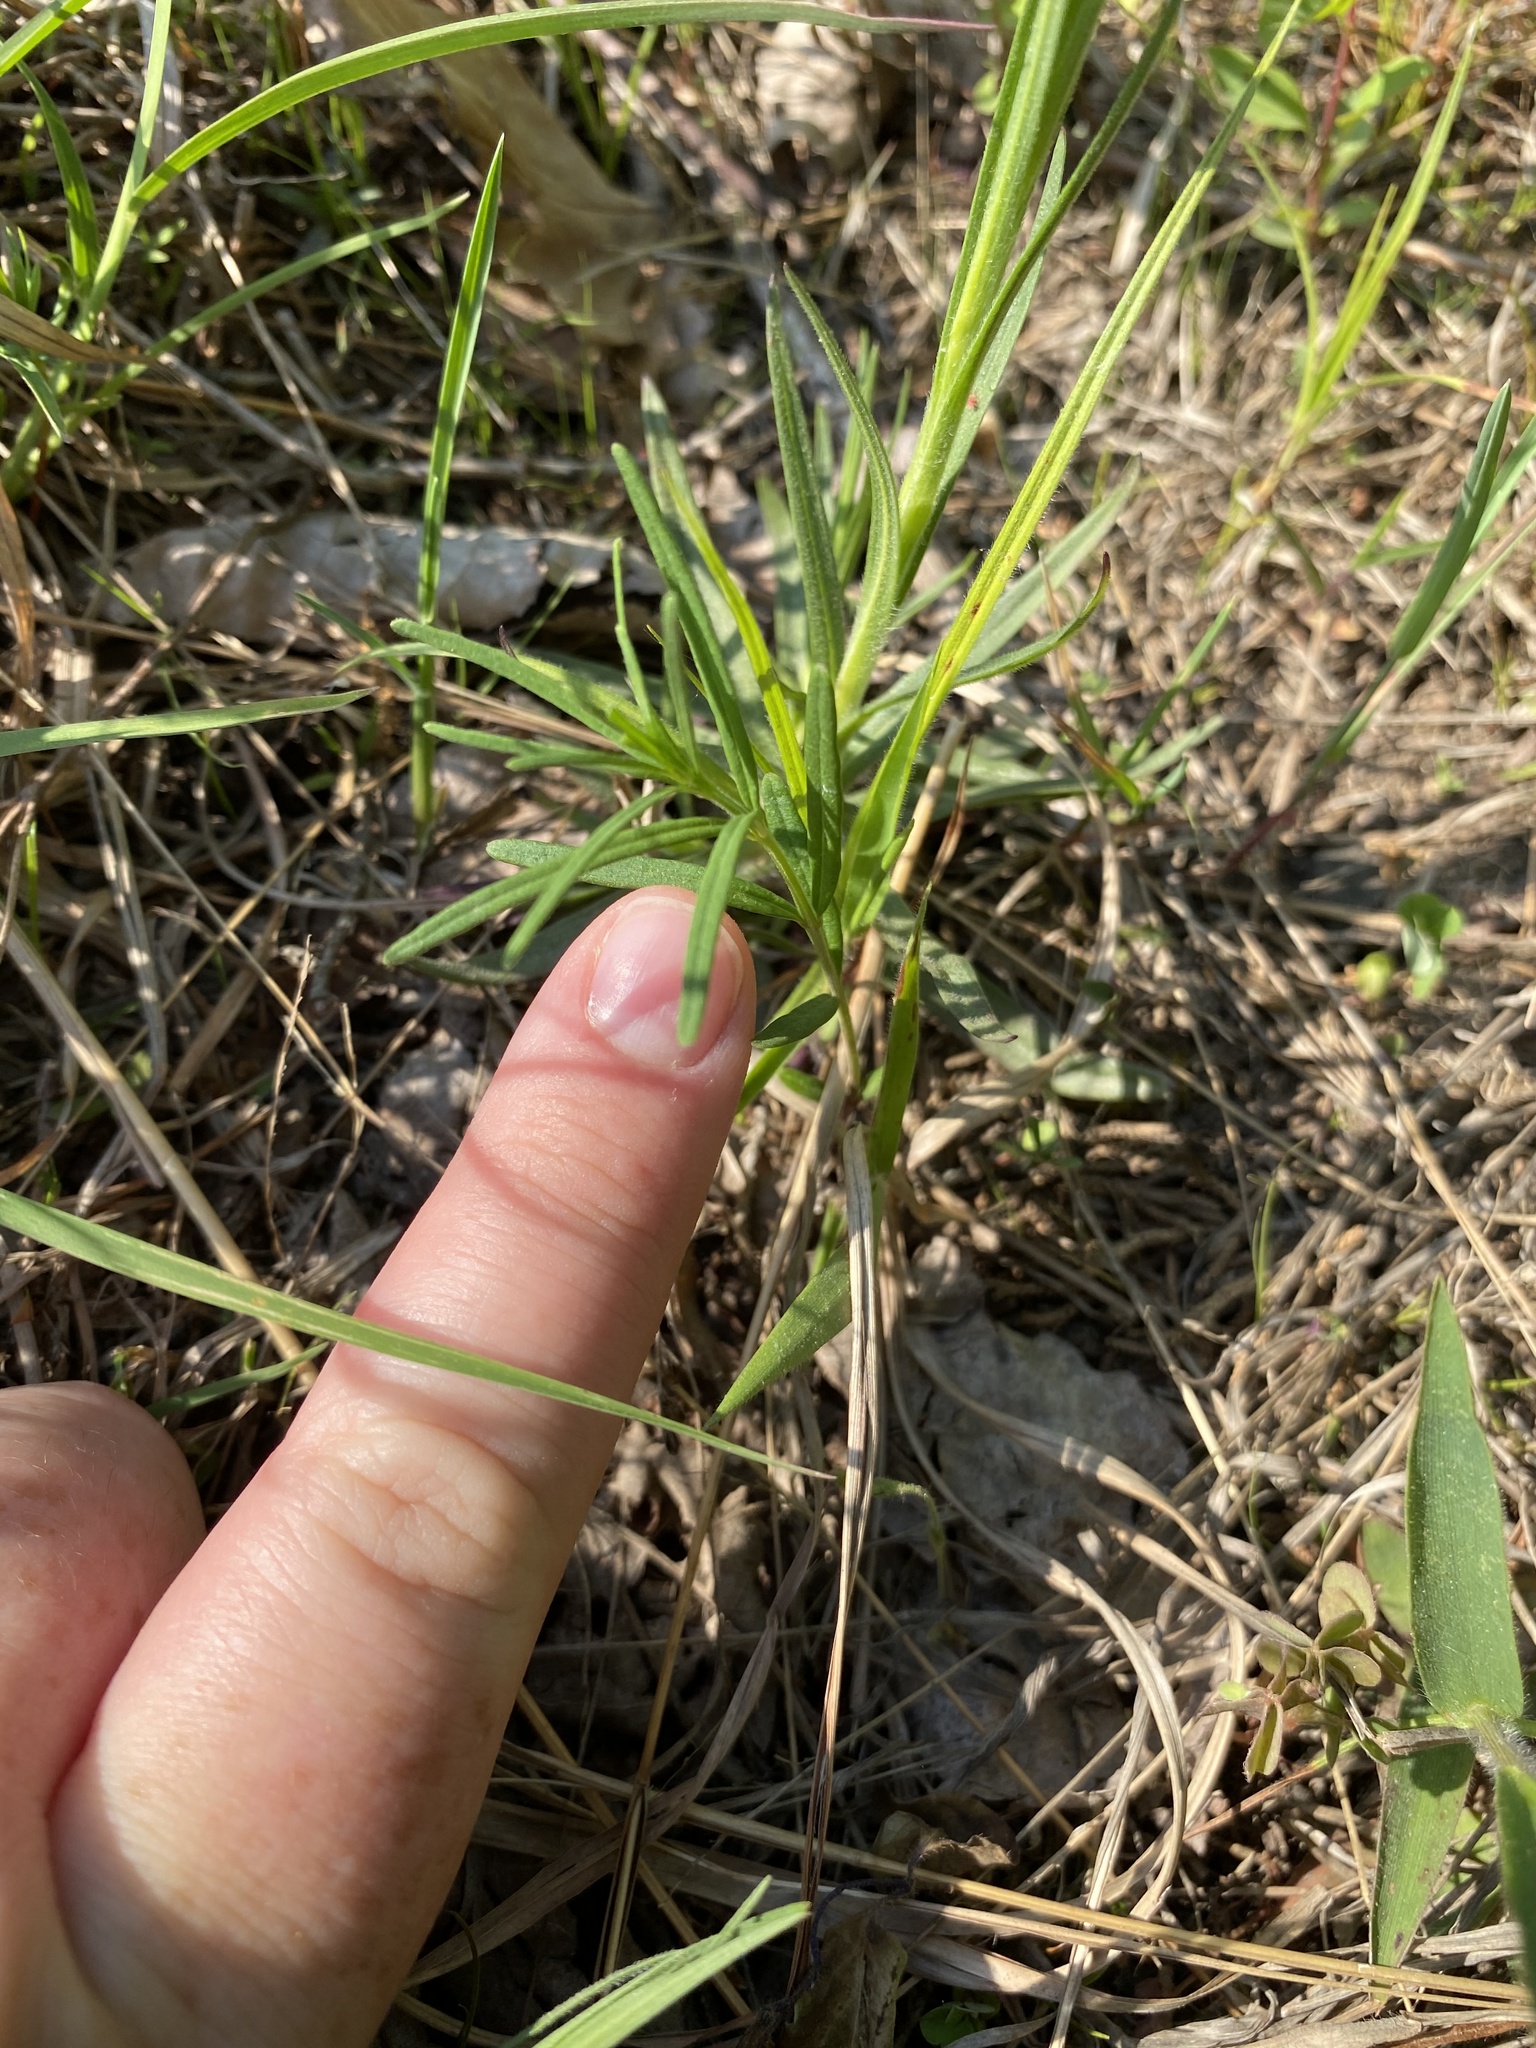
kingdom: Plantae
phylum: Tracheophyta
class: Magnoliopsida
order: Gentianales
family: Apocynaceae
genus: Asclepias
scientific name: Asclepias verticillata
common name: Eastern whorled milkweed
